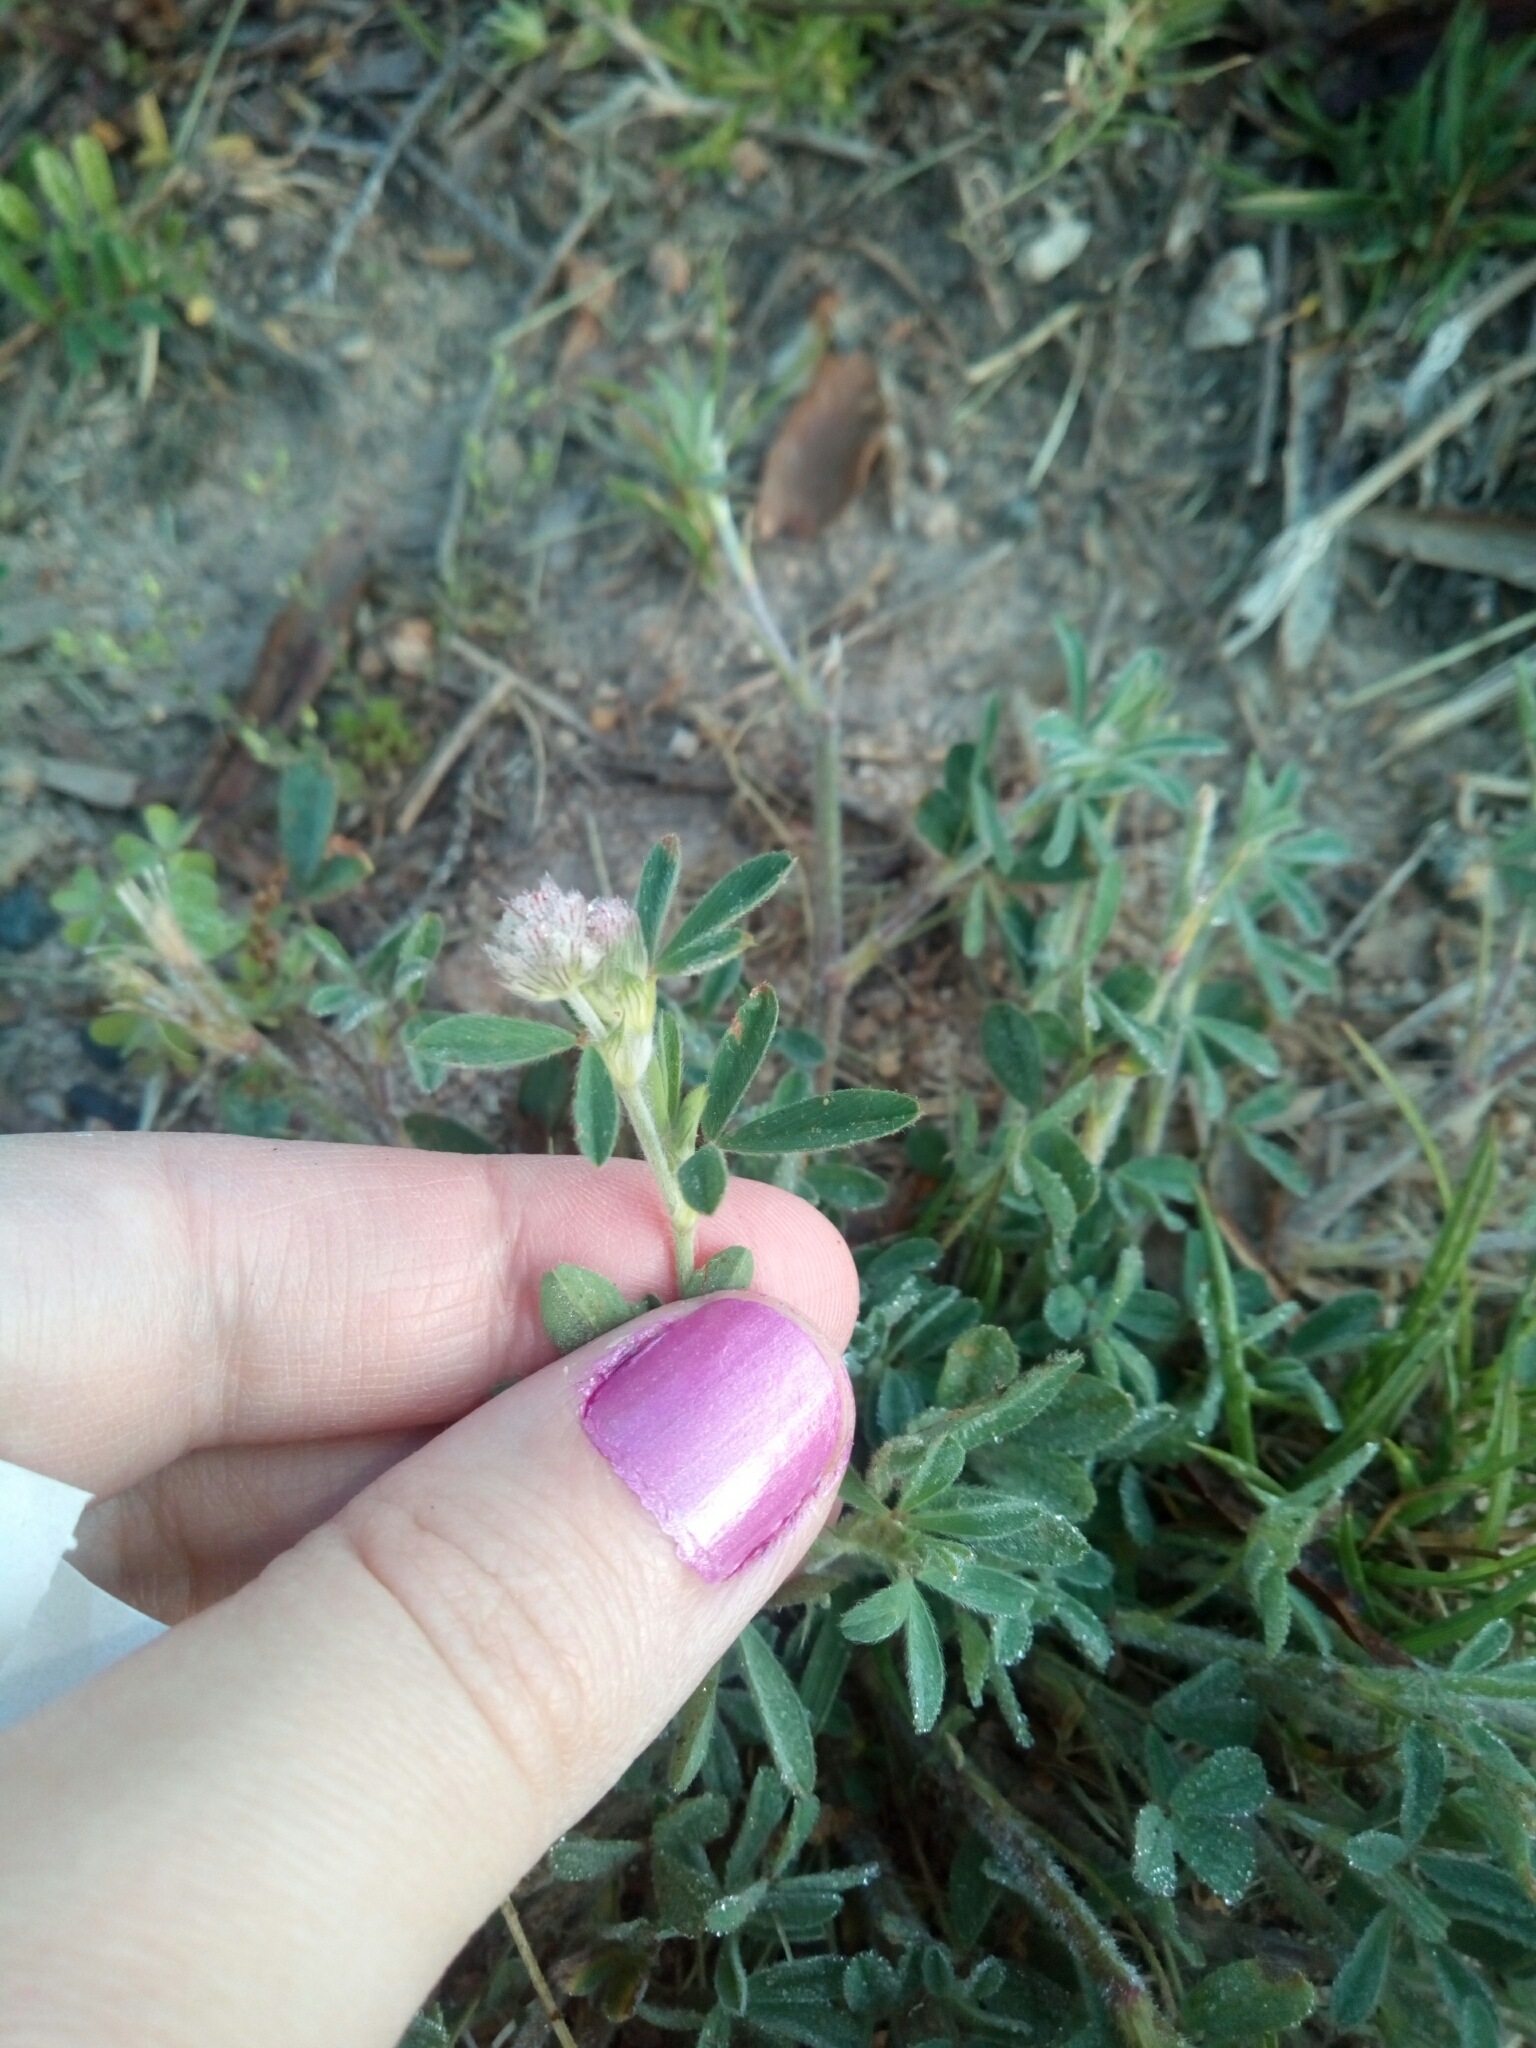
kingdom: Plantae
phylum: Tracheophyta
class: Magnoliopsida
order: Fabales
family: Fabaceae
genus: Trifolium
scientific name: Trifolium arvense
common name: Hare's-foot clover
